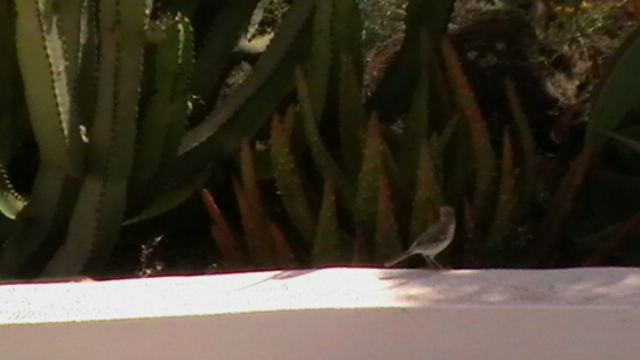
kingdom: Animalia
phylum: Chordata
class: Aves
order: Passeriformes
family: Motacillidae
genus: Anthus
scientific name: Anthus berthelotii
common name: Berthelot's pipit
